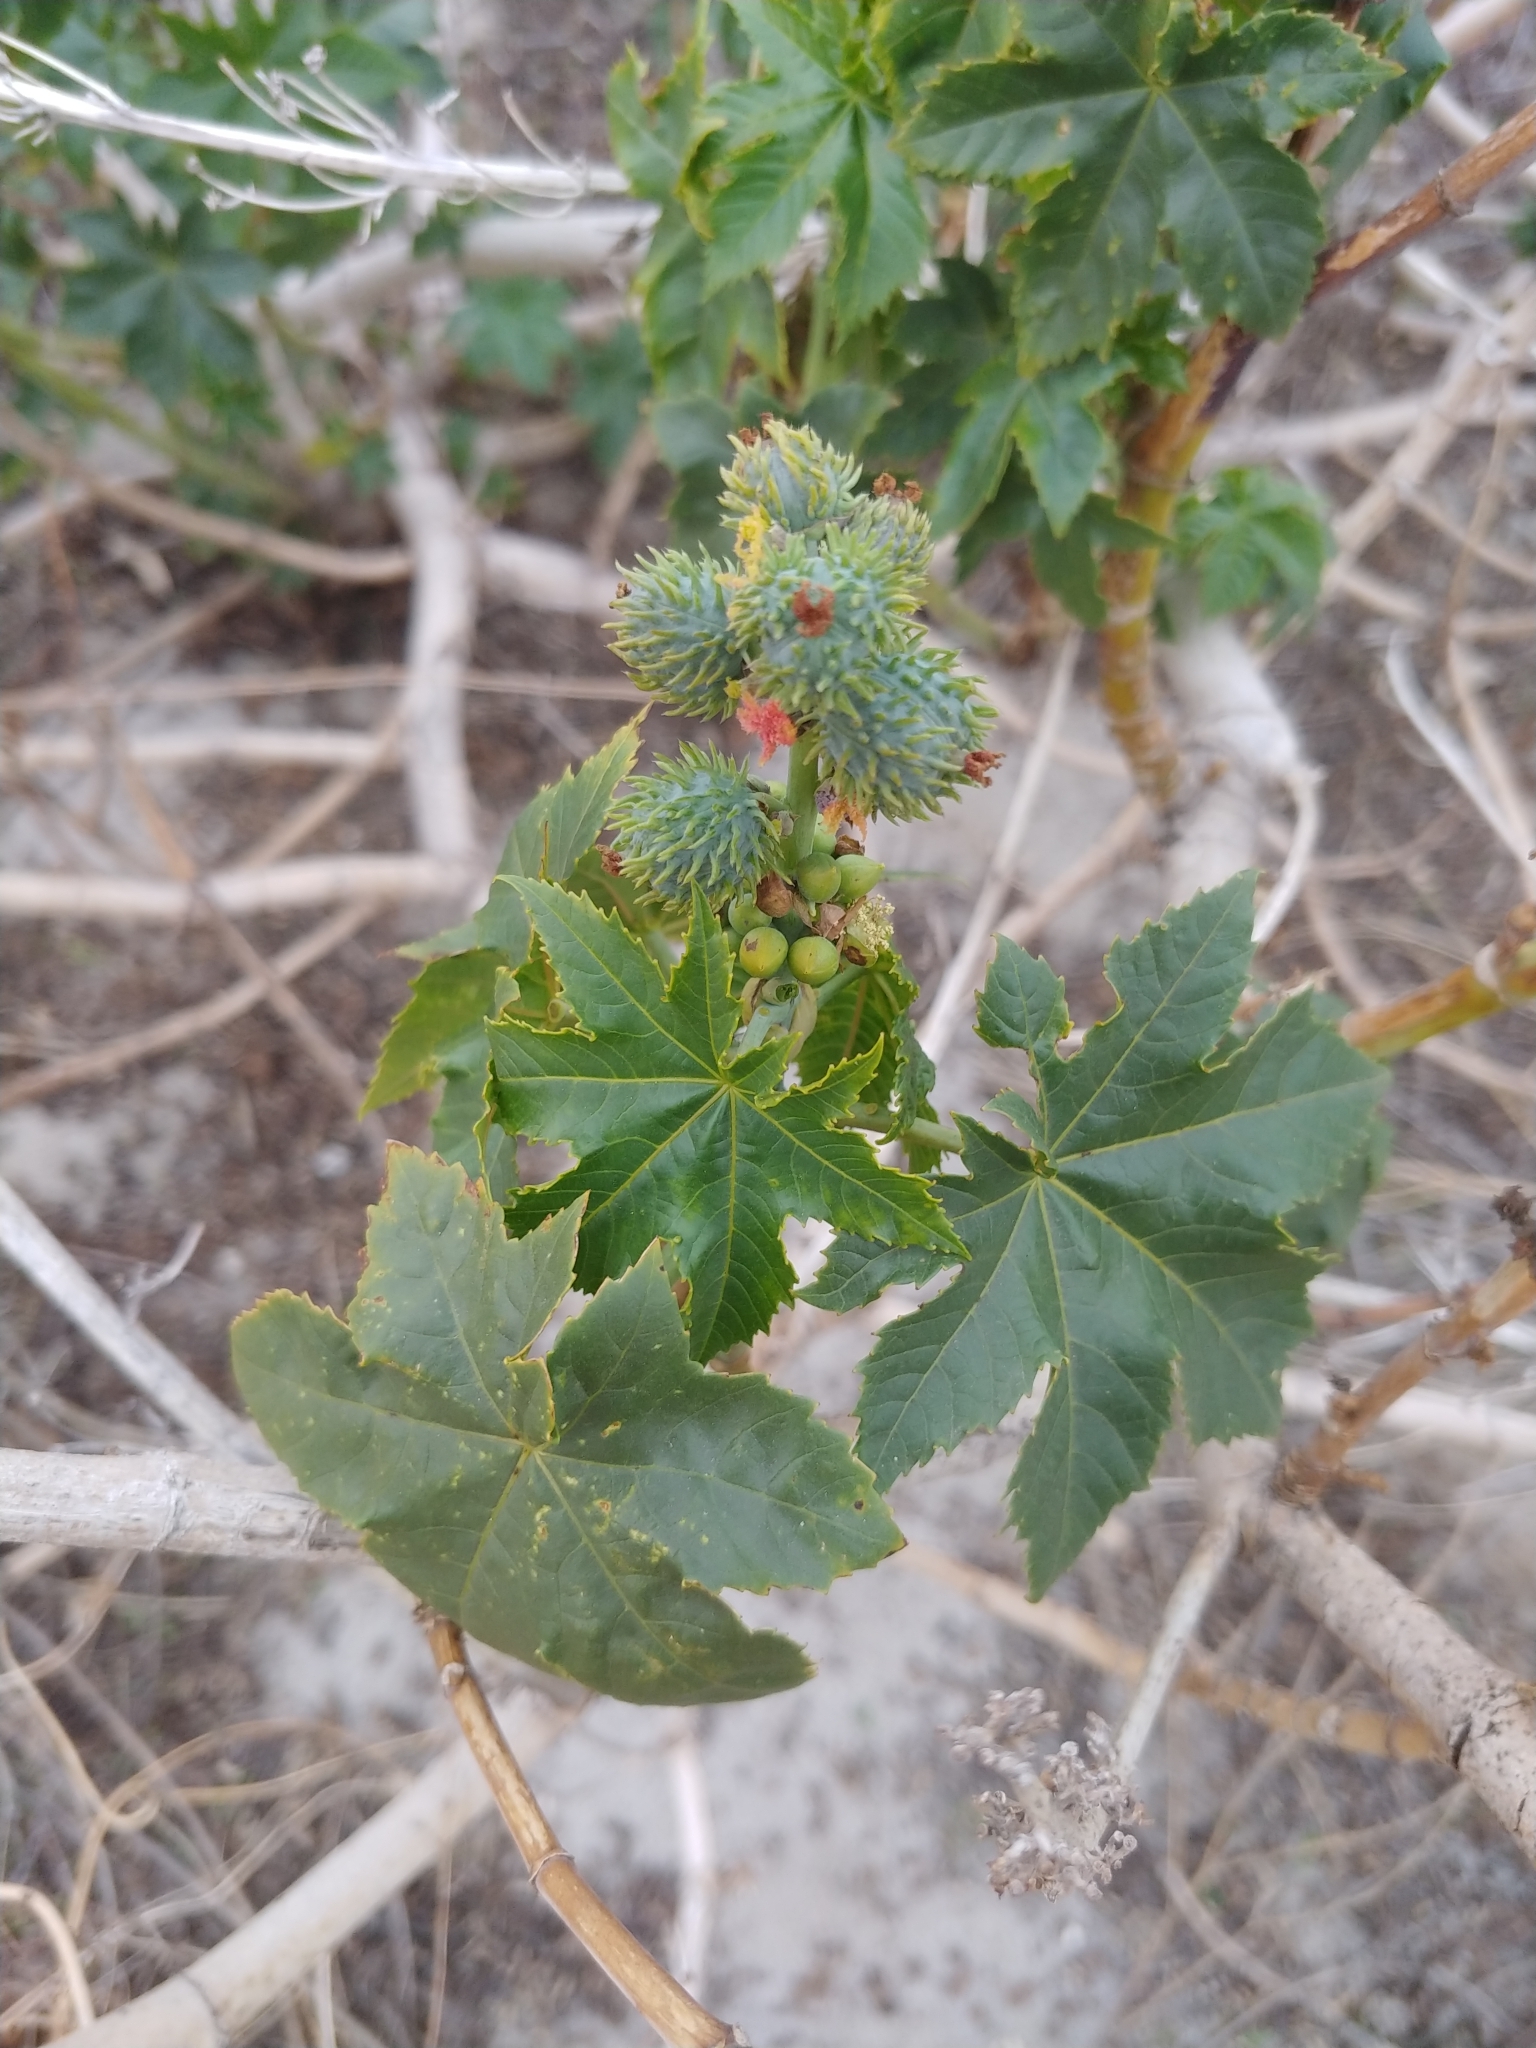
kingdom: Plantae
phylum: Tracheophyta
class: Magnoliopsida
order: Malpighiales
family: Euphorbiaceae
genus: Ricinus
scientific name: Ricinus communis
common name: Castor-oil-plant
